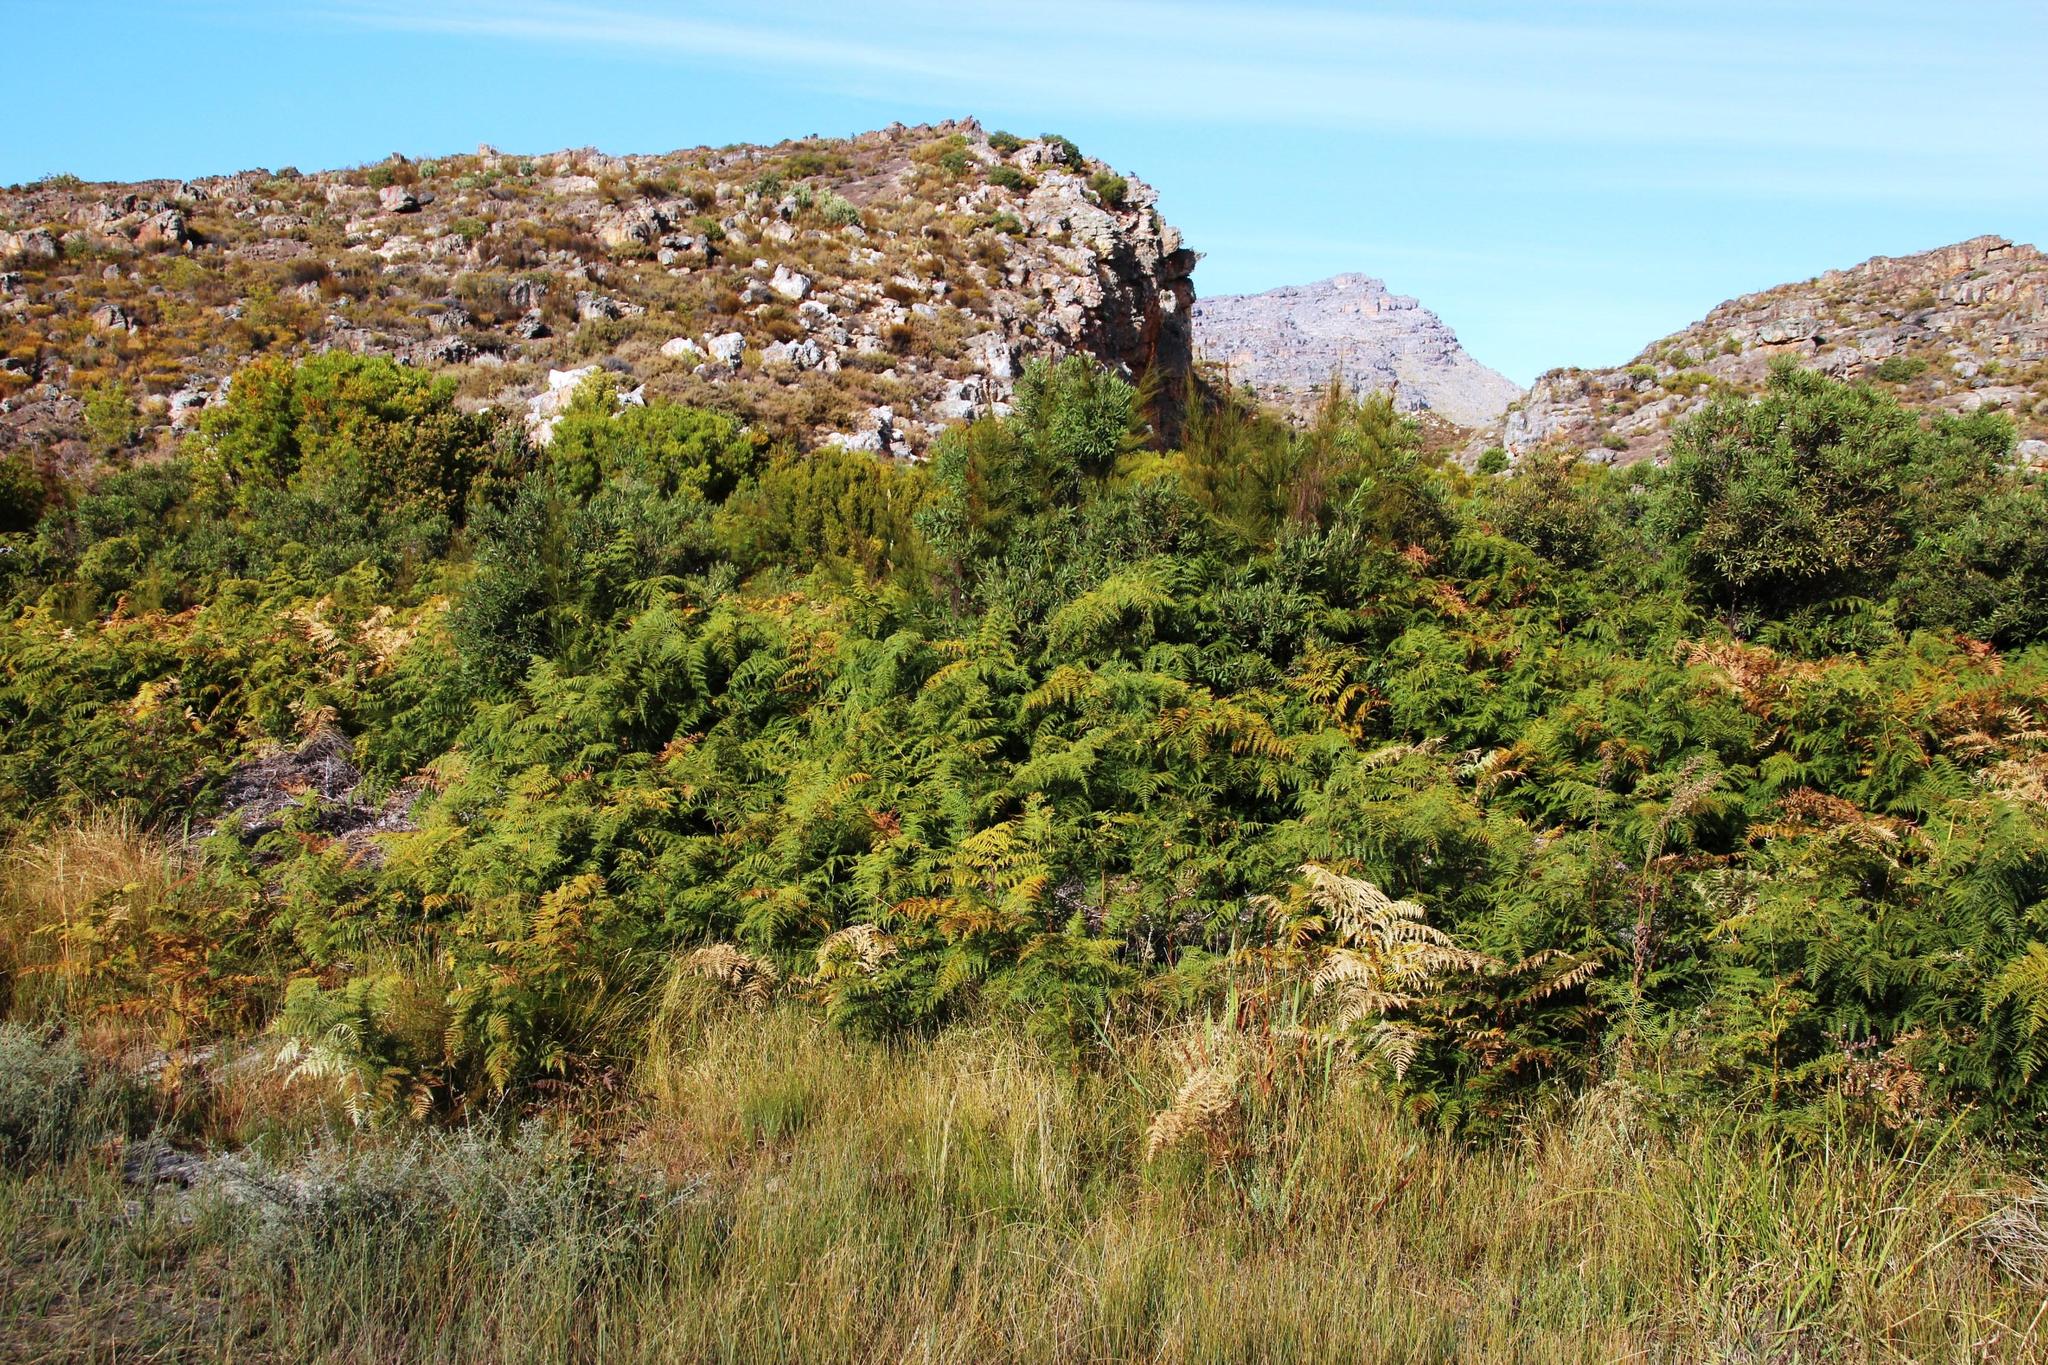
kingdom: Plantae
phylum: Tracheophyta
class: Polypodiopsida
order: Polypodiales
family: Dennstaedtiaceae
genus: Pteridium
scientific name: Pteridium aquilinum
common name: Bracken
